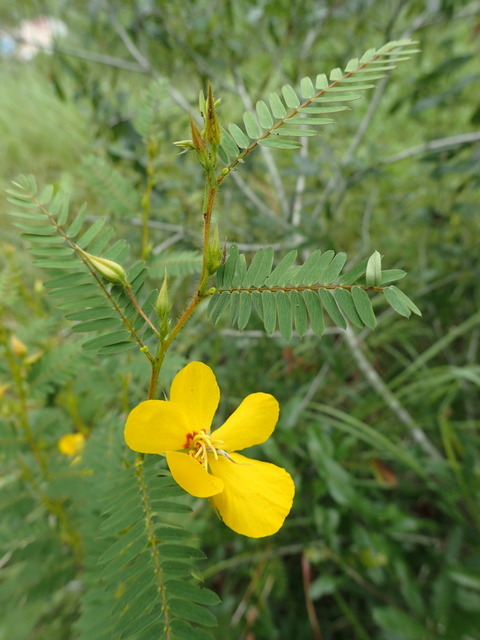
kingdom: Plantae
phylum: Tracheophyta
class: Magnoliopsida
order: Fabales
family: Fabaceae
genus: Chamaecrista
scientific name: Chamaecrista fasciculata
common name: Golden cassia
